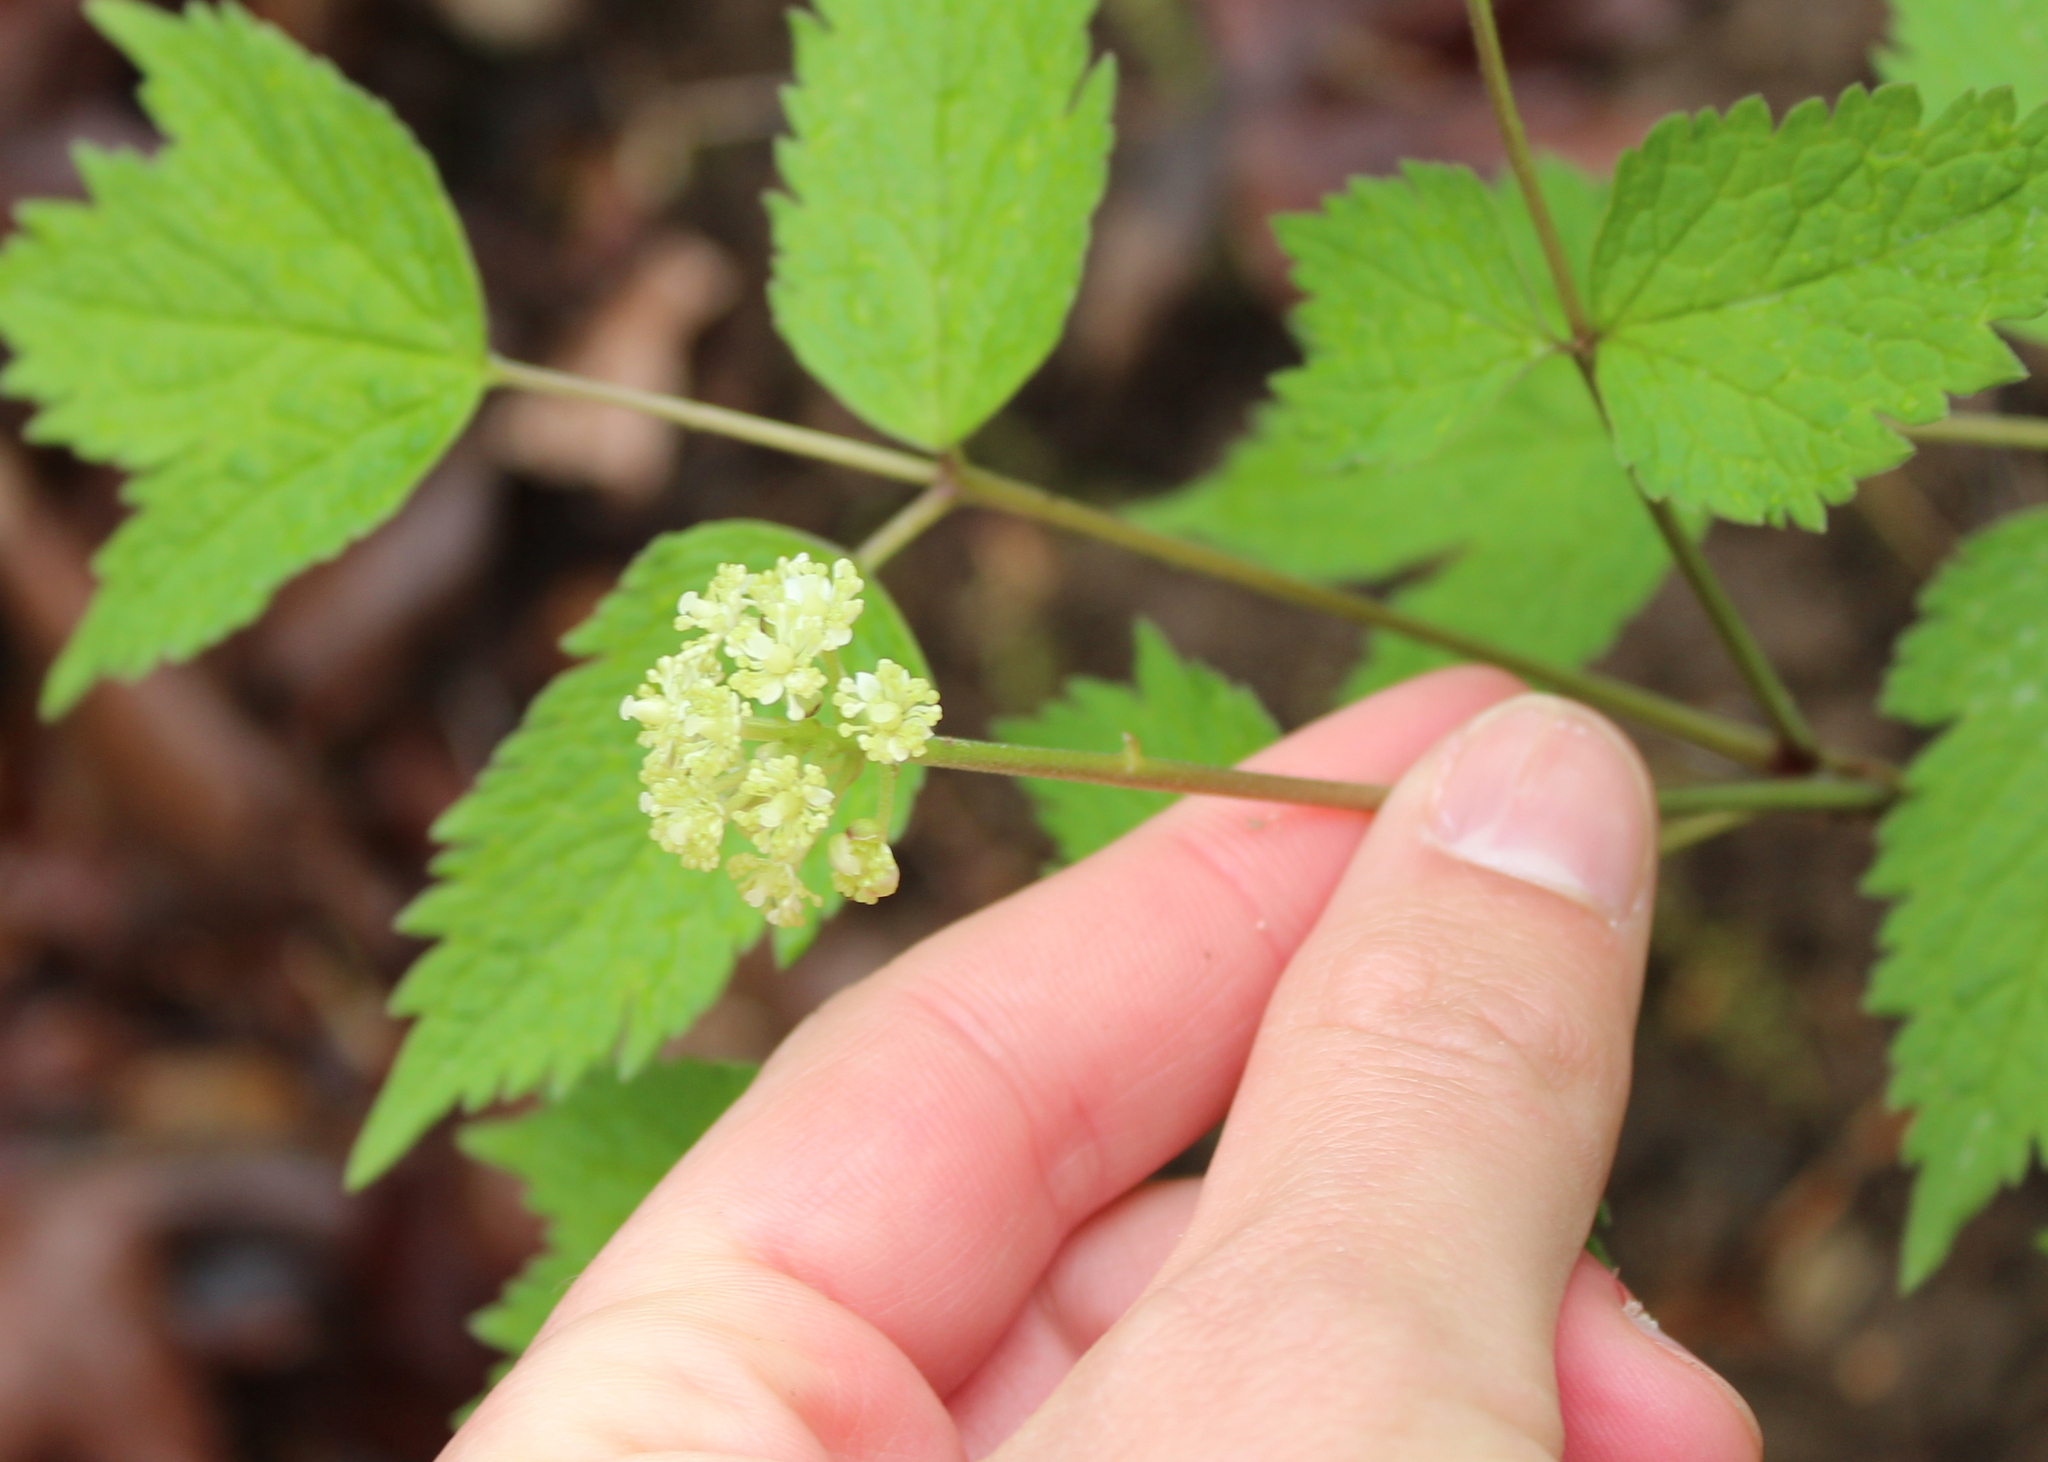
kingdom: Plantae
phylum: Tracheophyta
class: Magnoliopsida
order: Ranunculales
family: Ranunculaceae
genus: Actaea
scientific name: Actaea pachypoda
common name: Doll's-eyes
